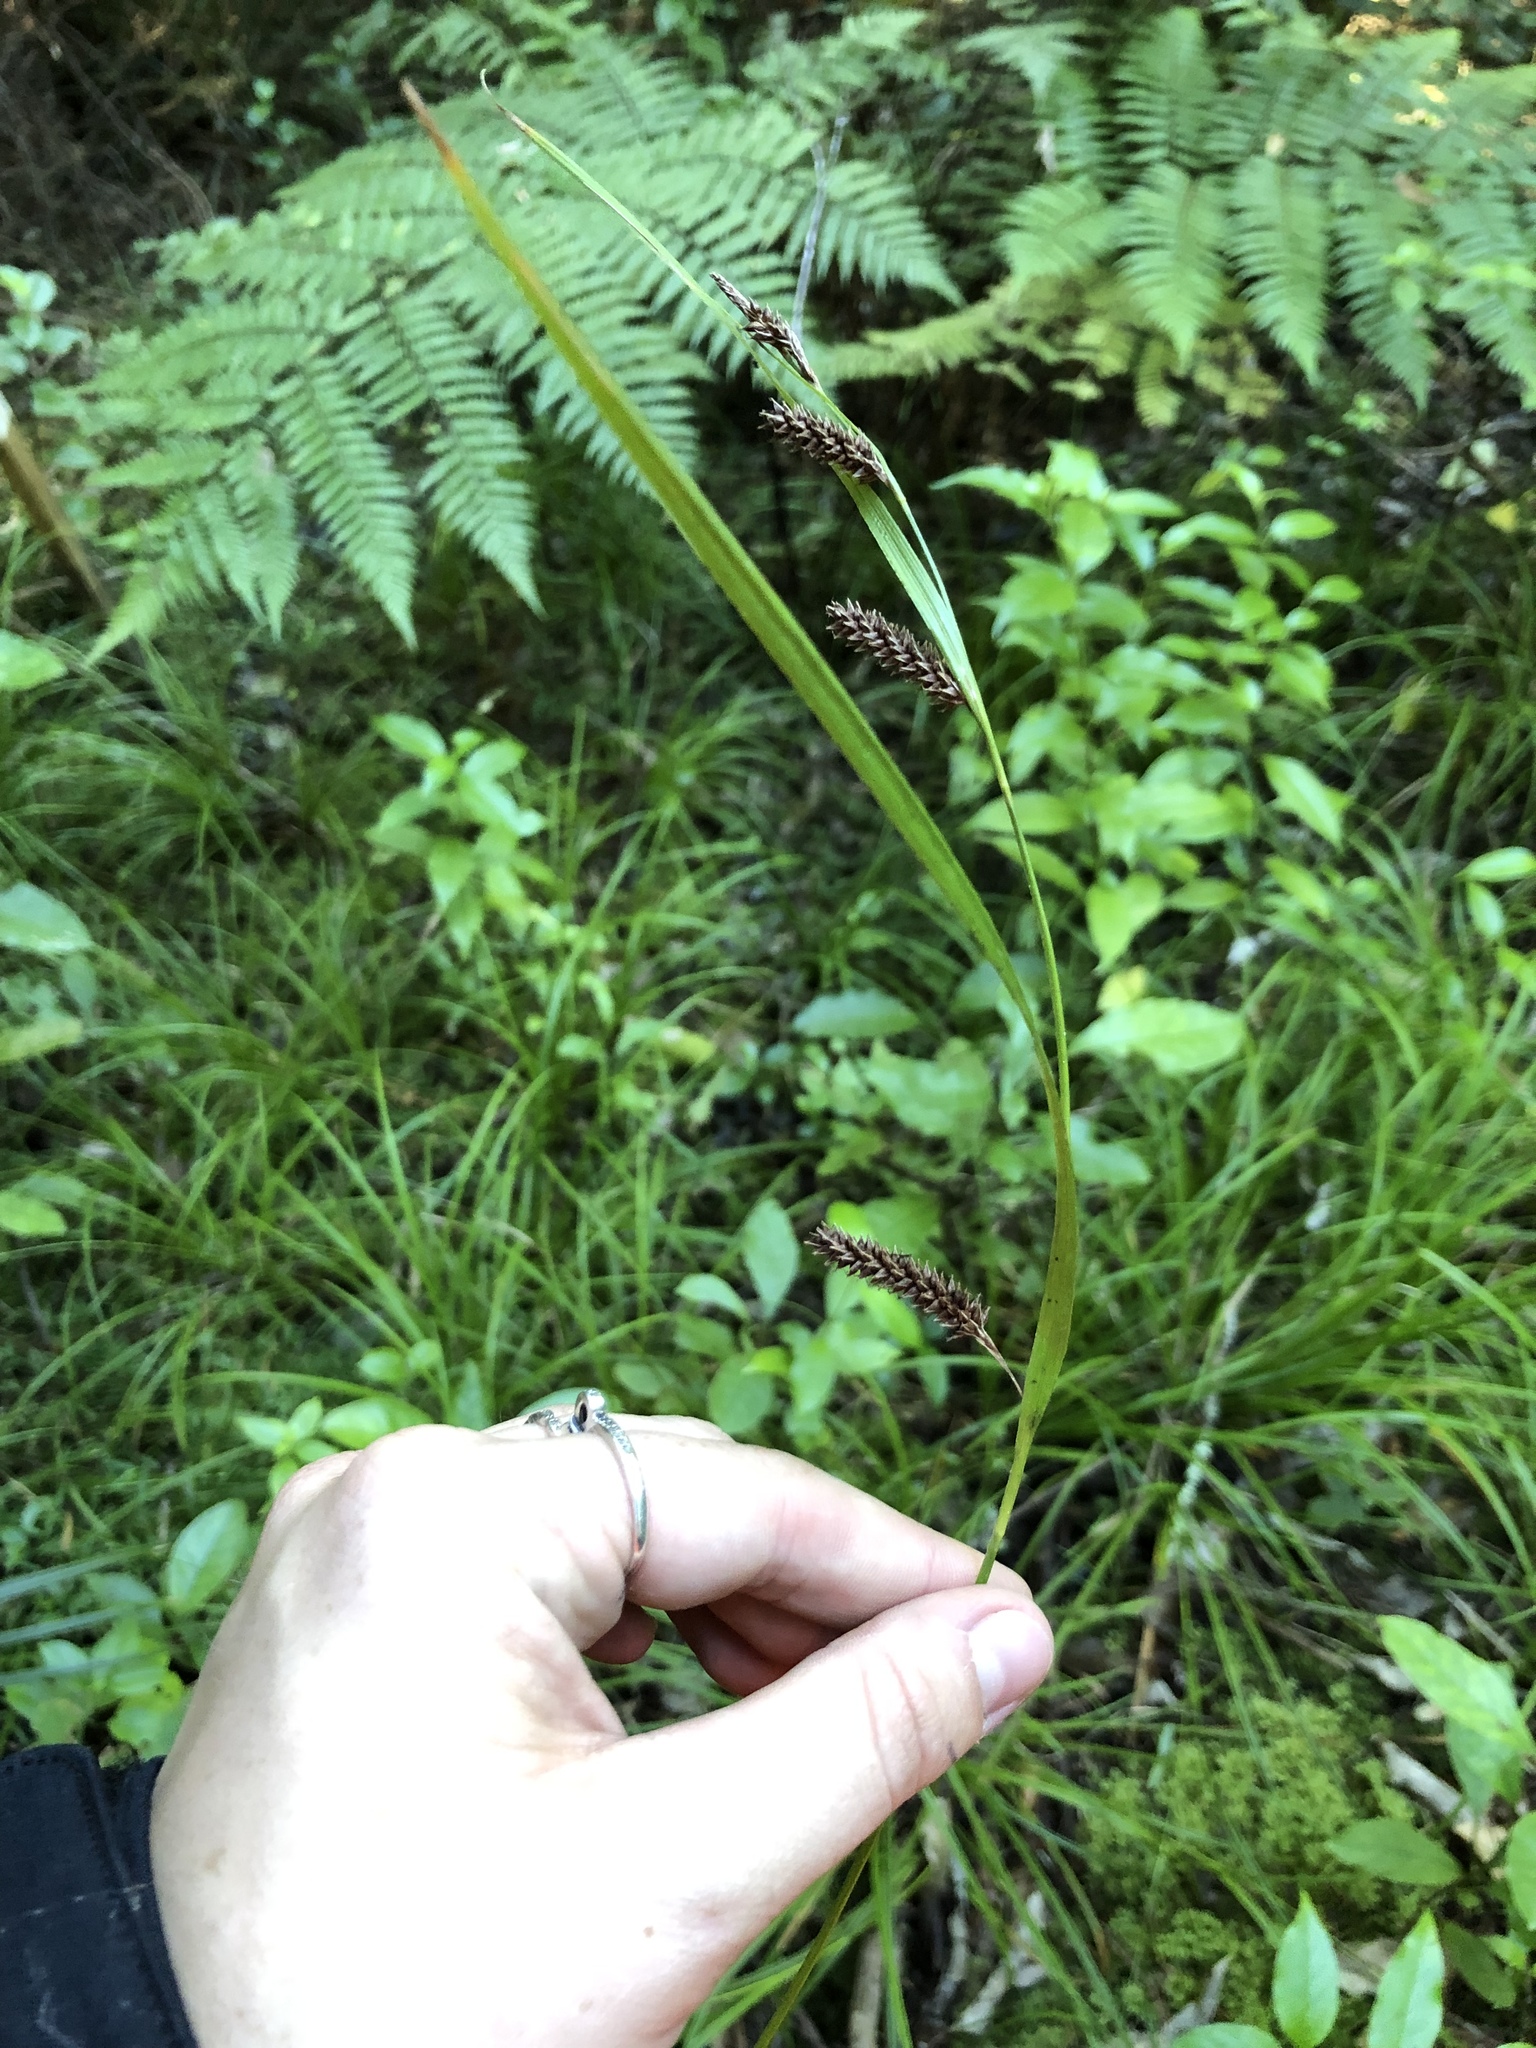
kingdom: Plantae
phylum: Tracheophyta
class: Liliopsida
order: Poales
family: Cyperaceae
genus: Carex
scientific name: Carex solandri
